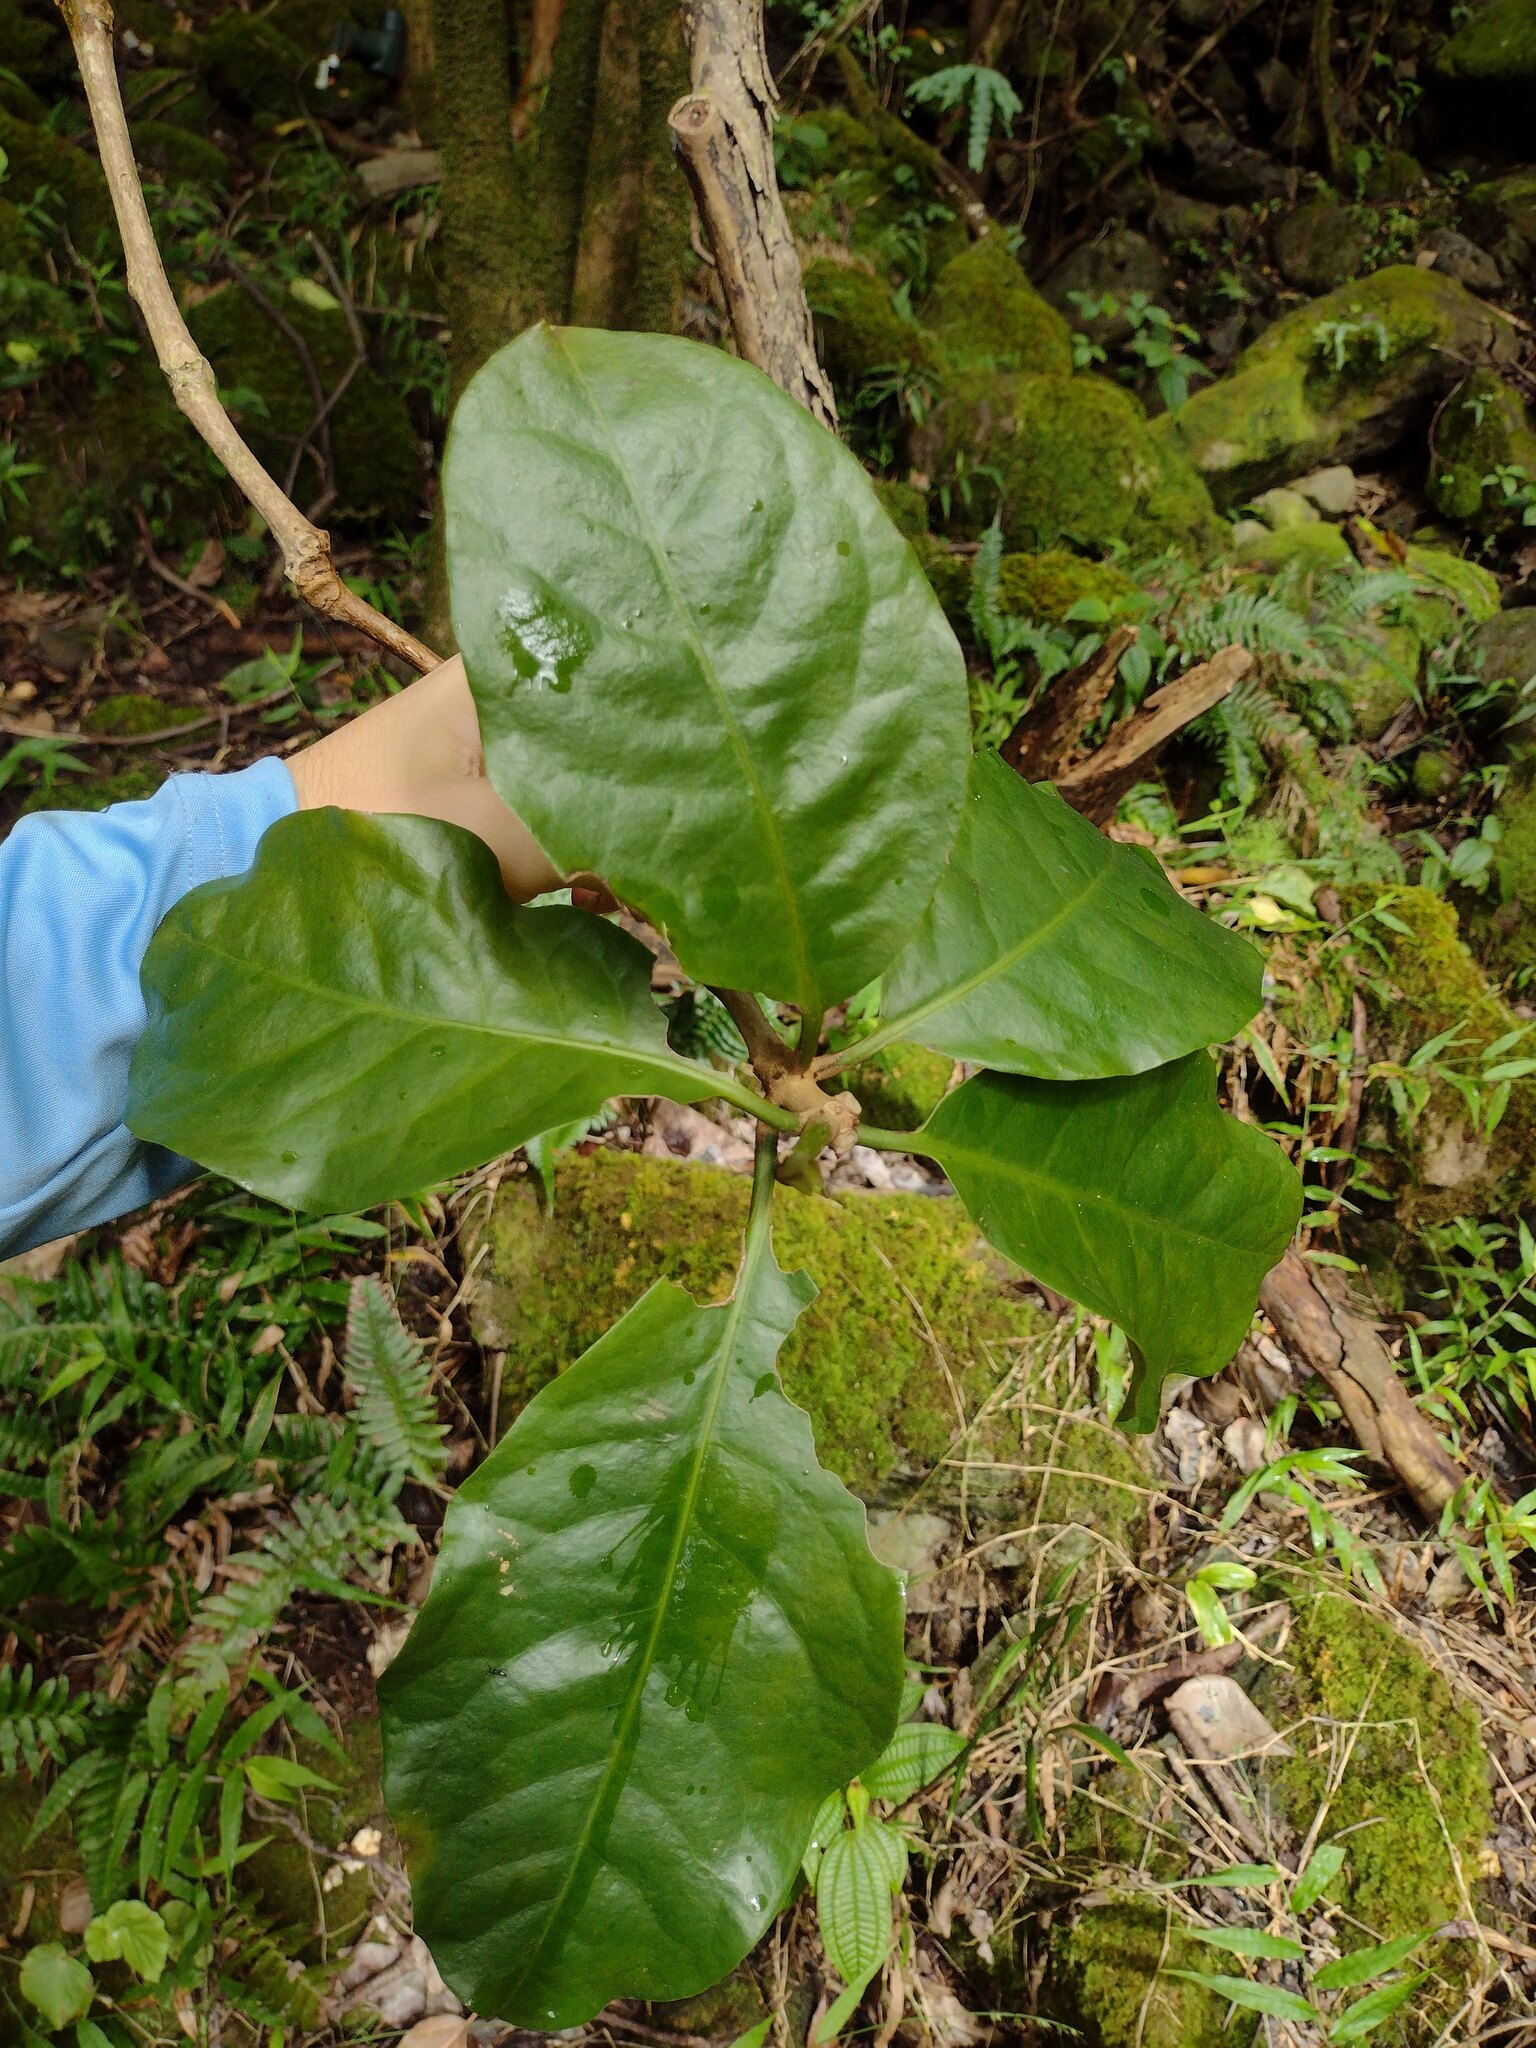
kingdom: Plantae
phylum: Tracheophyta
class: Magnoliopsida
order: Caryophyllales
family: Nyctaginaceae
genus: Ceodes
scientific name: Ceodes brunoniana
